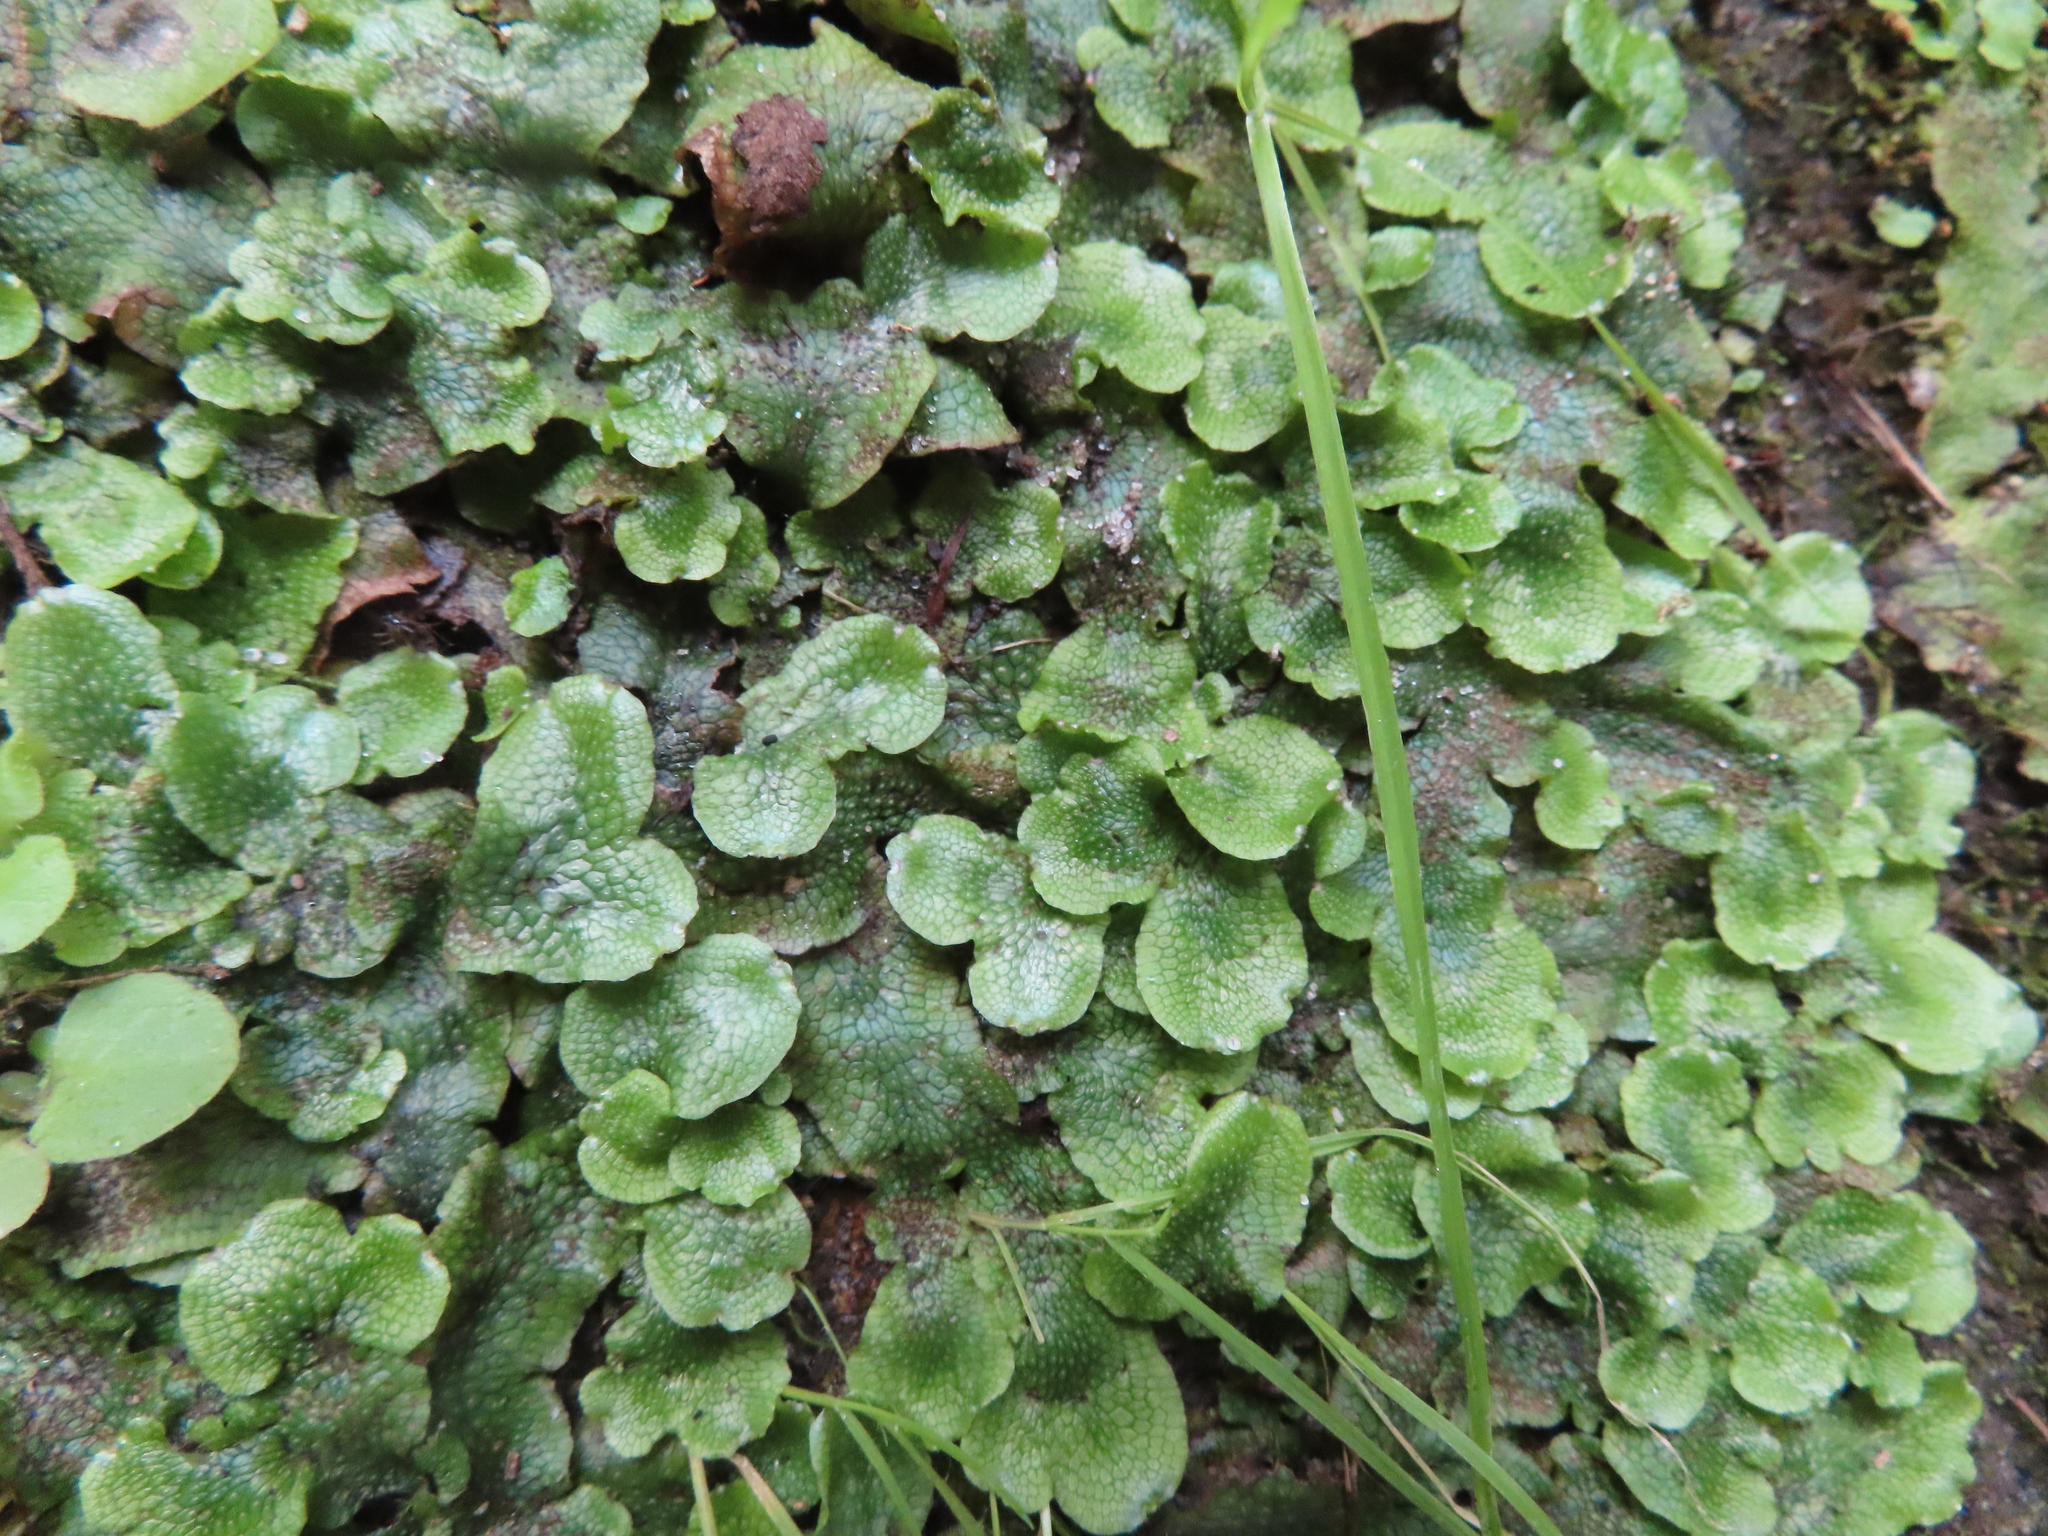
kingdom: Plantae
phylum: Marchantiophyta
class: Marchantiopsida
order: Marchantiales
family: Conocephalaceae
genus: Conocephalum
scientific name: Conocephalum salebrosum
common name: Cat-tongue liverwort
